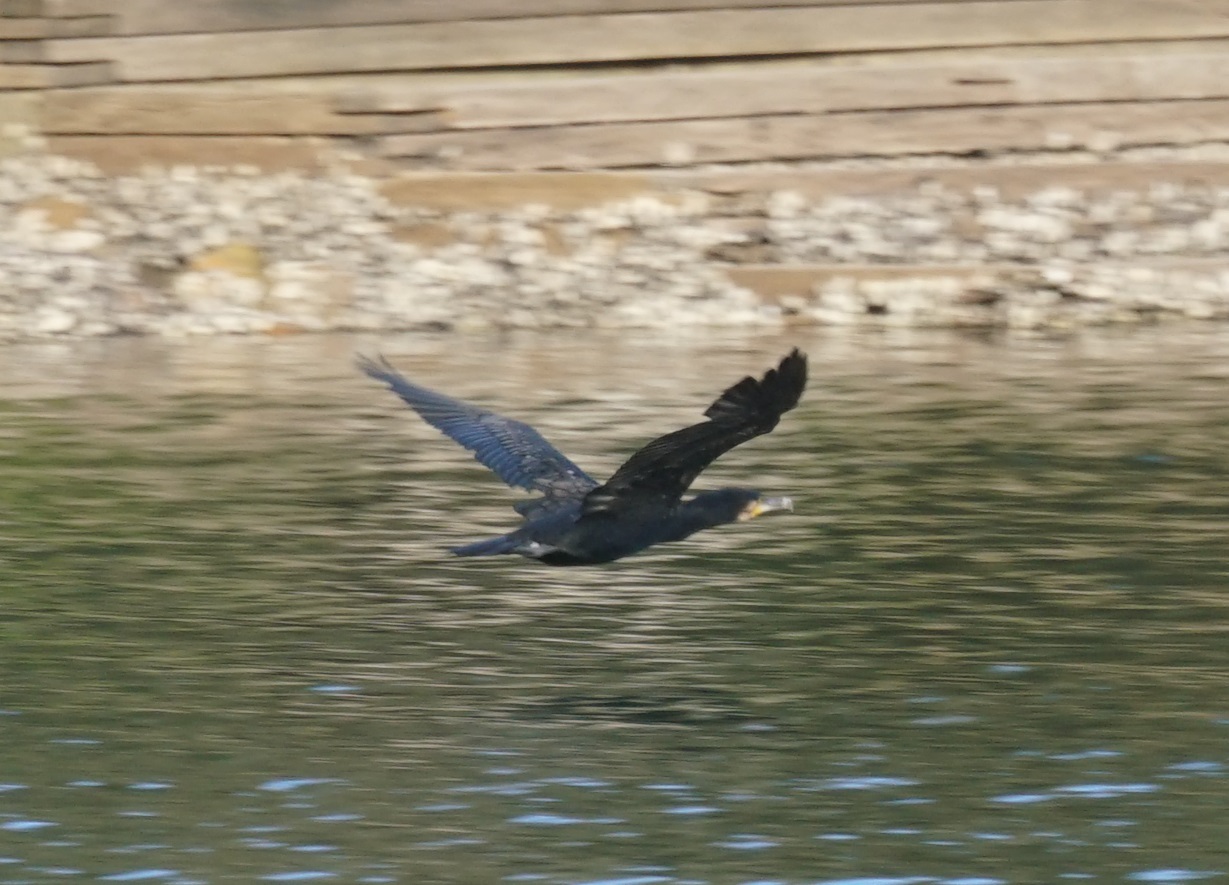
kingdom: Animalia
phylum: Chordata
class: Aves
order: Suliformes
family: Phalacrocoracidae
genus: Phalacrocorax
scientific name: Phalacrocorax carbo
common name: Great cormorant
